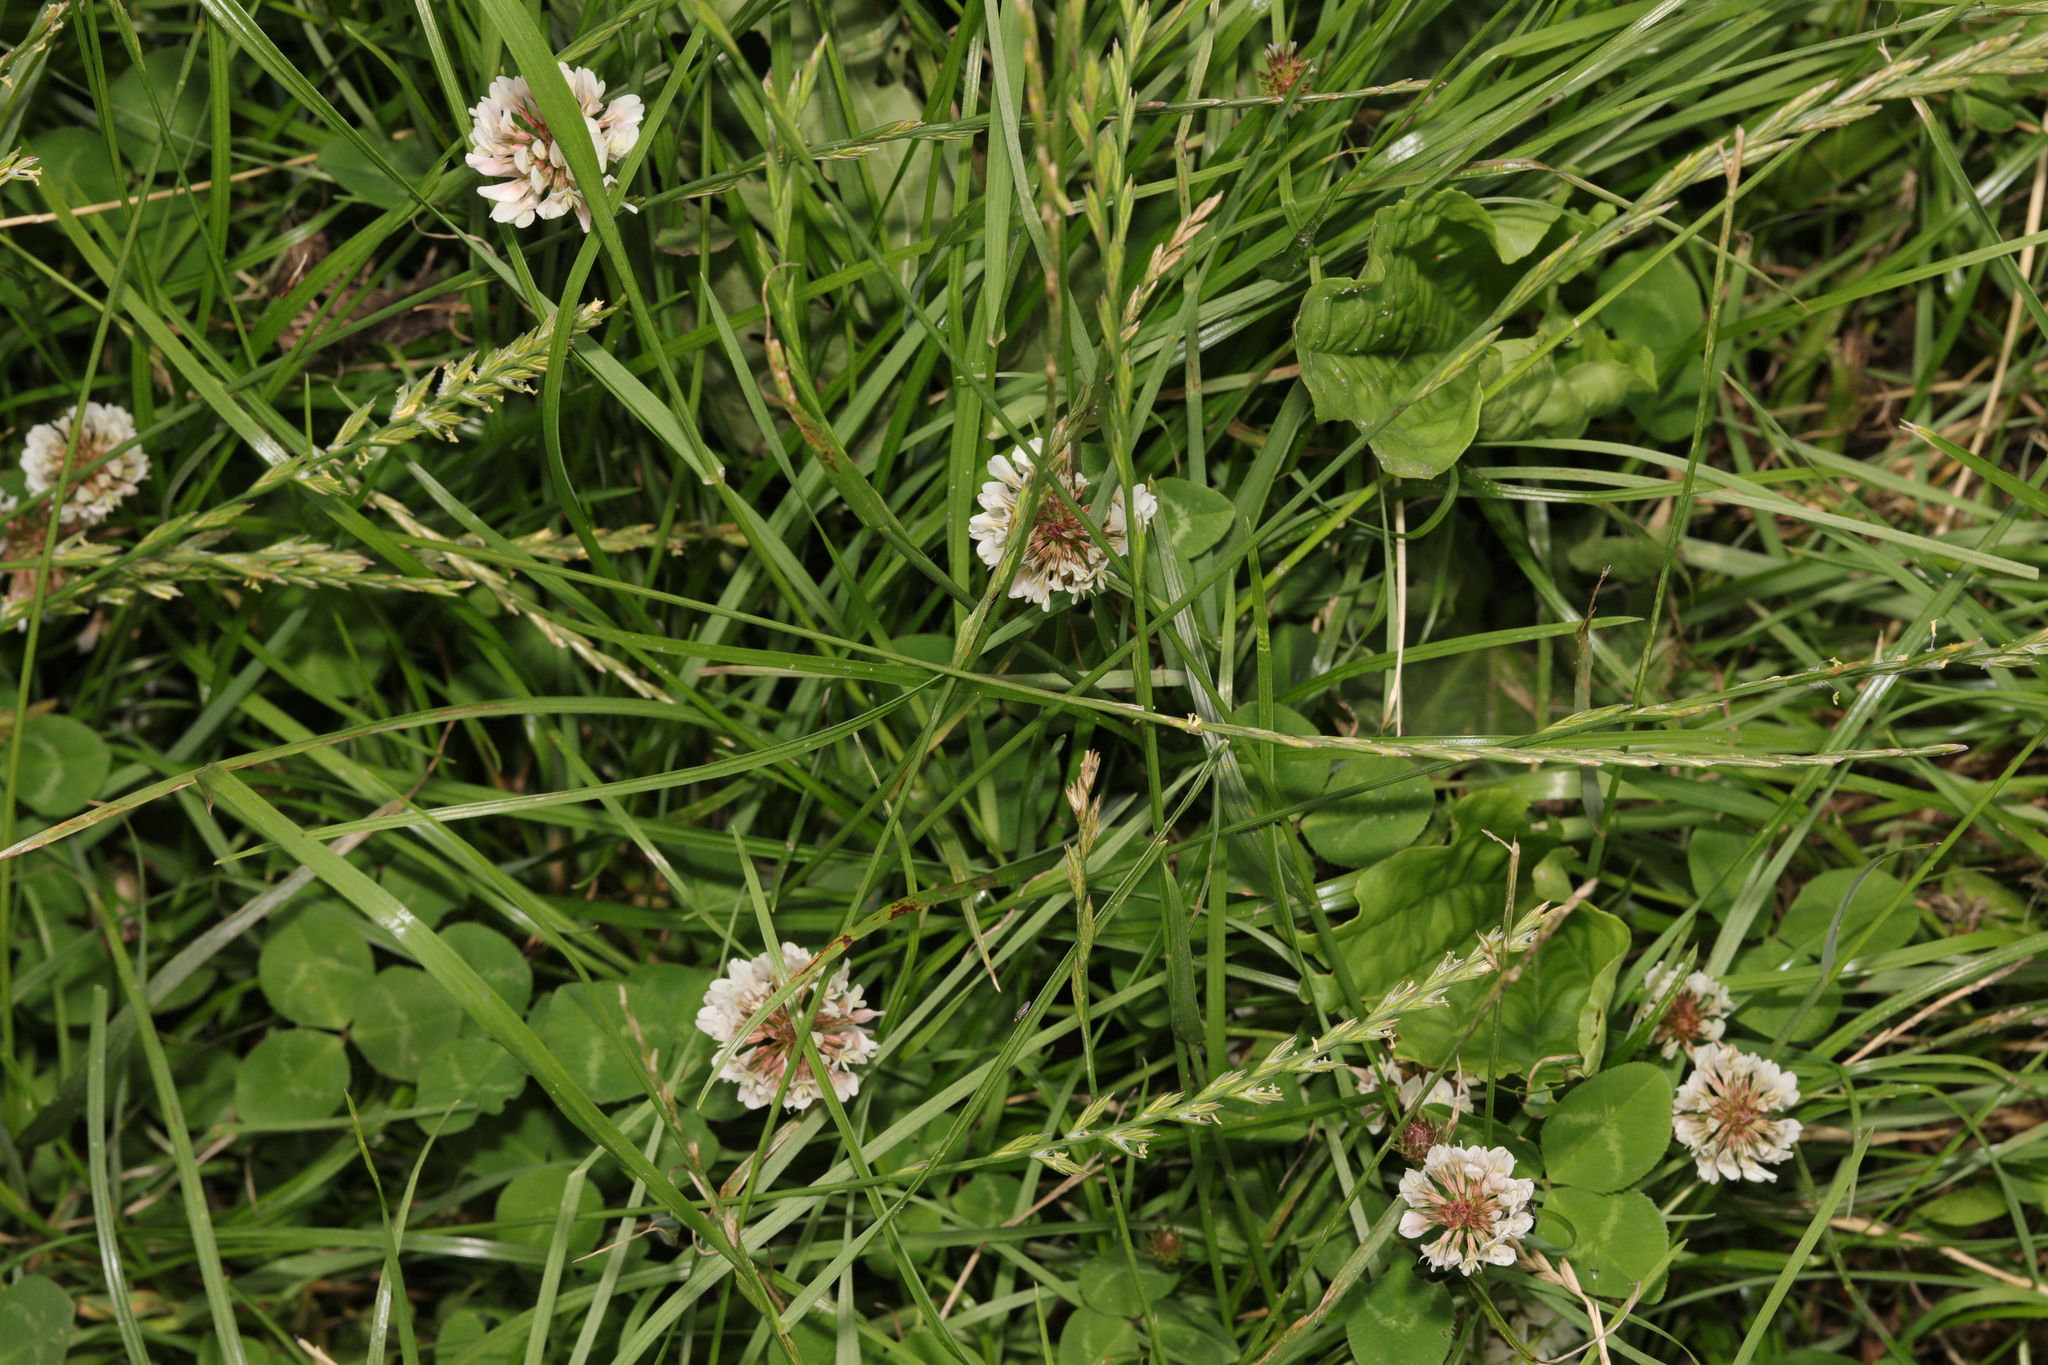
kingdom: Plantae
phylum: Tracheophyta
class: Magnoliopsida
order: Fabales
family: Fabaceae
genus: Trifolium
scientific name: Trifolium repens
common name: White clover
